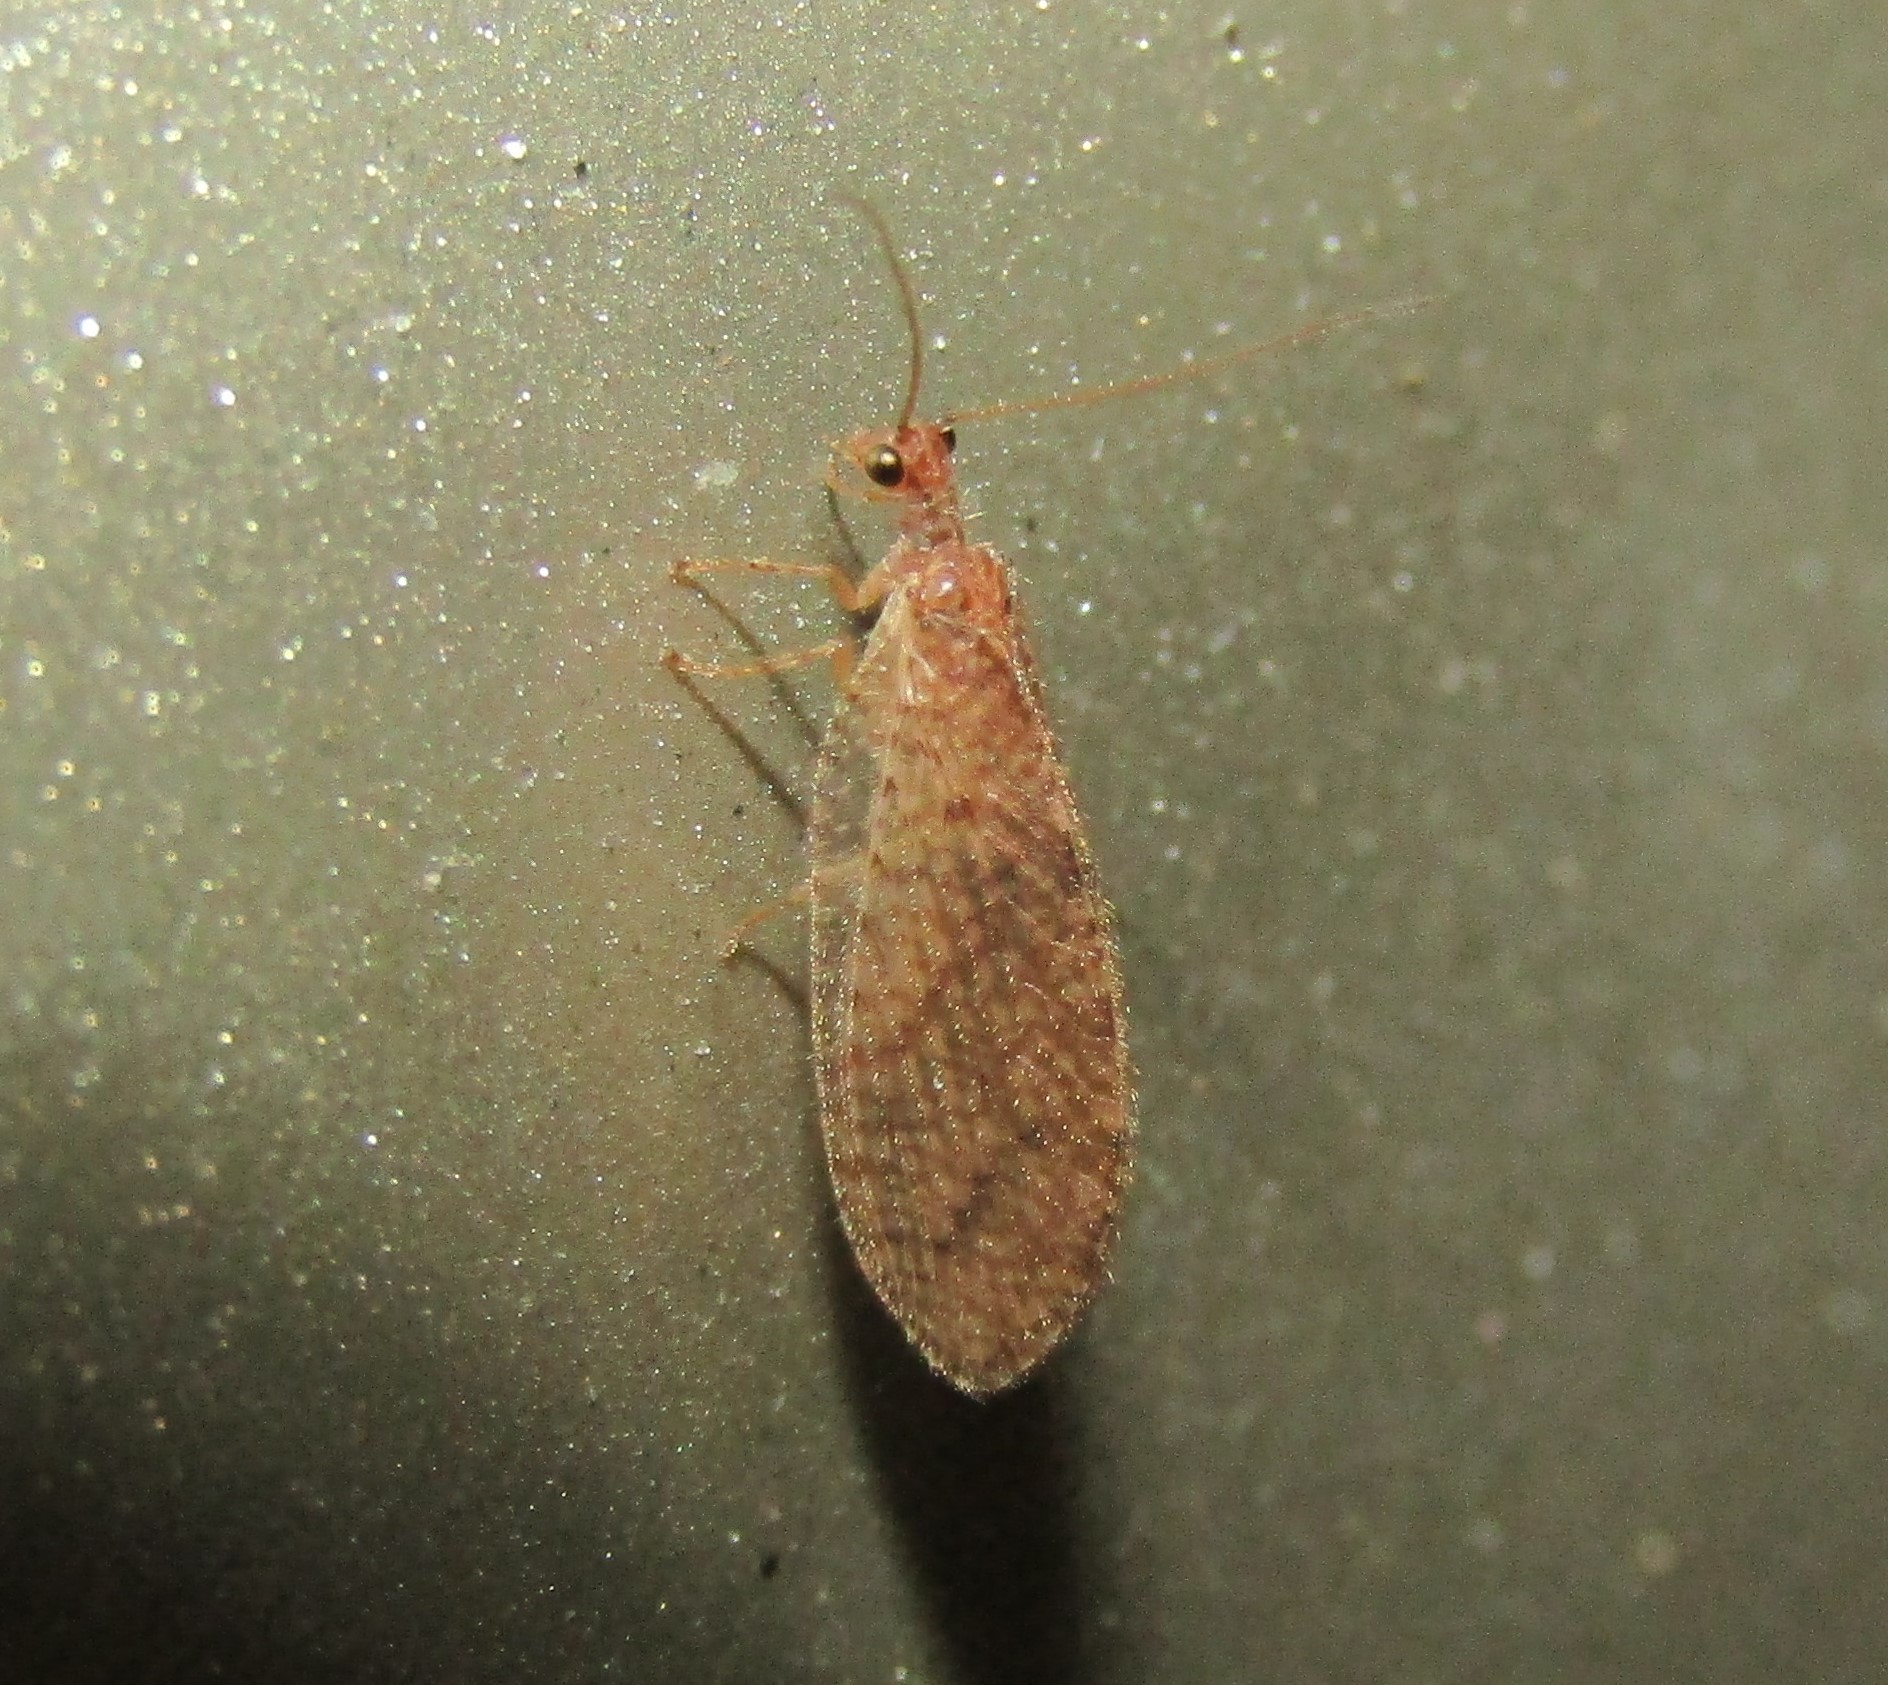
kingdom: Animalia
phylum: Arthropoda
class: Insecta
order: Neuroptera
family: Hemerobiidae
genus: Micromus
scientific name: Micromus posticus
